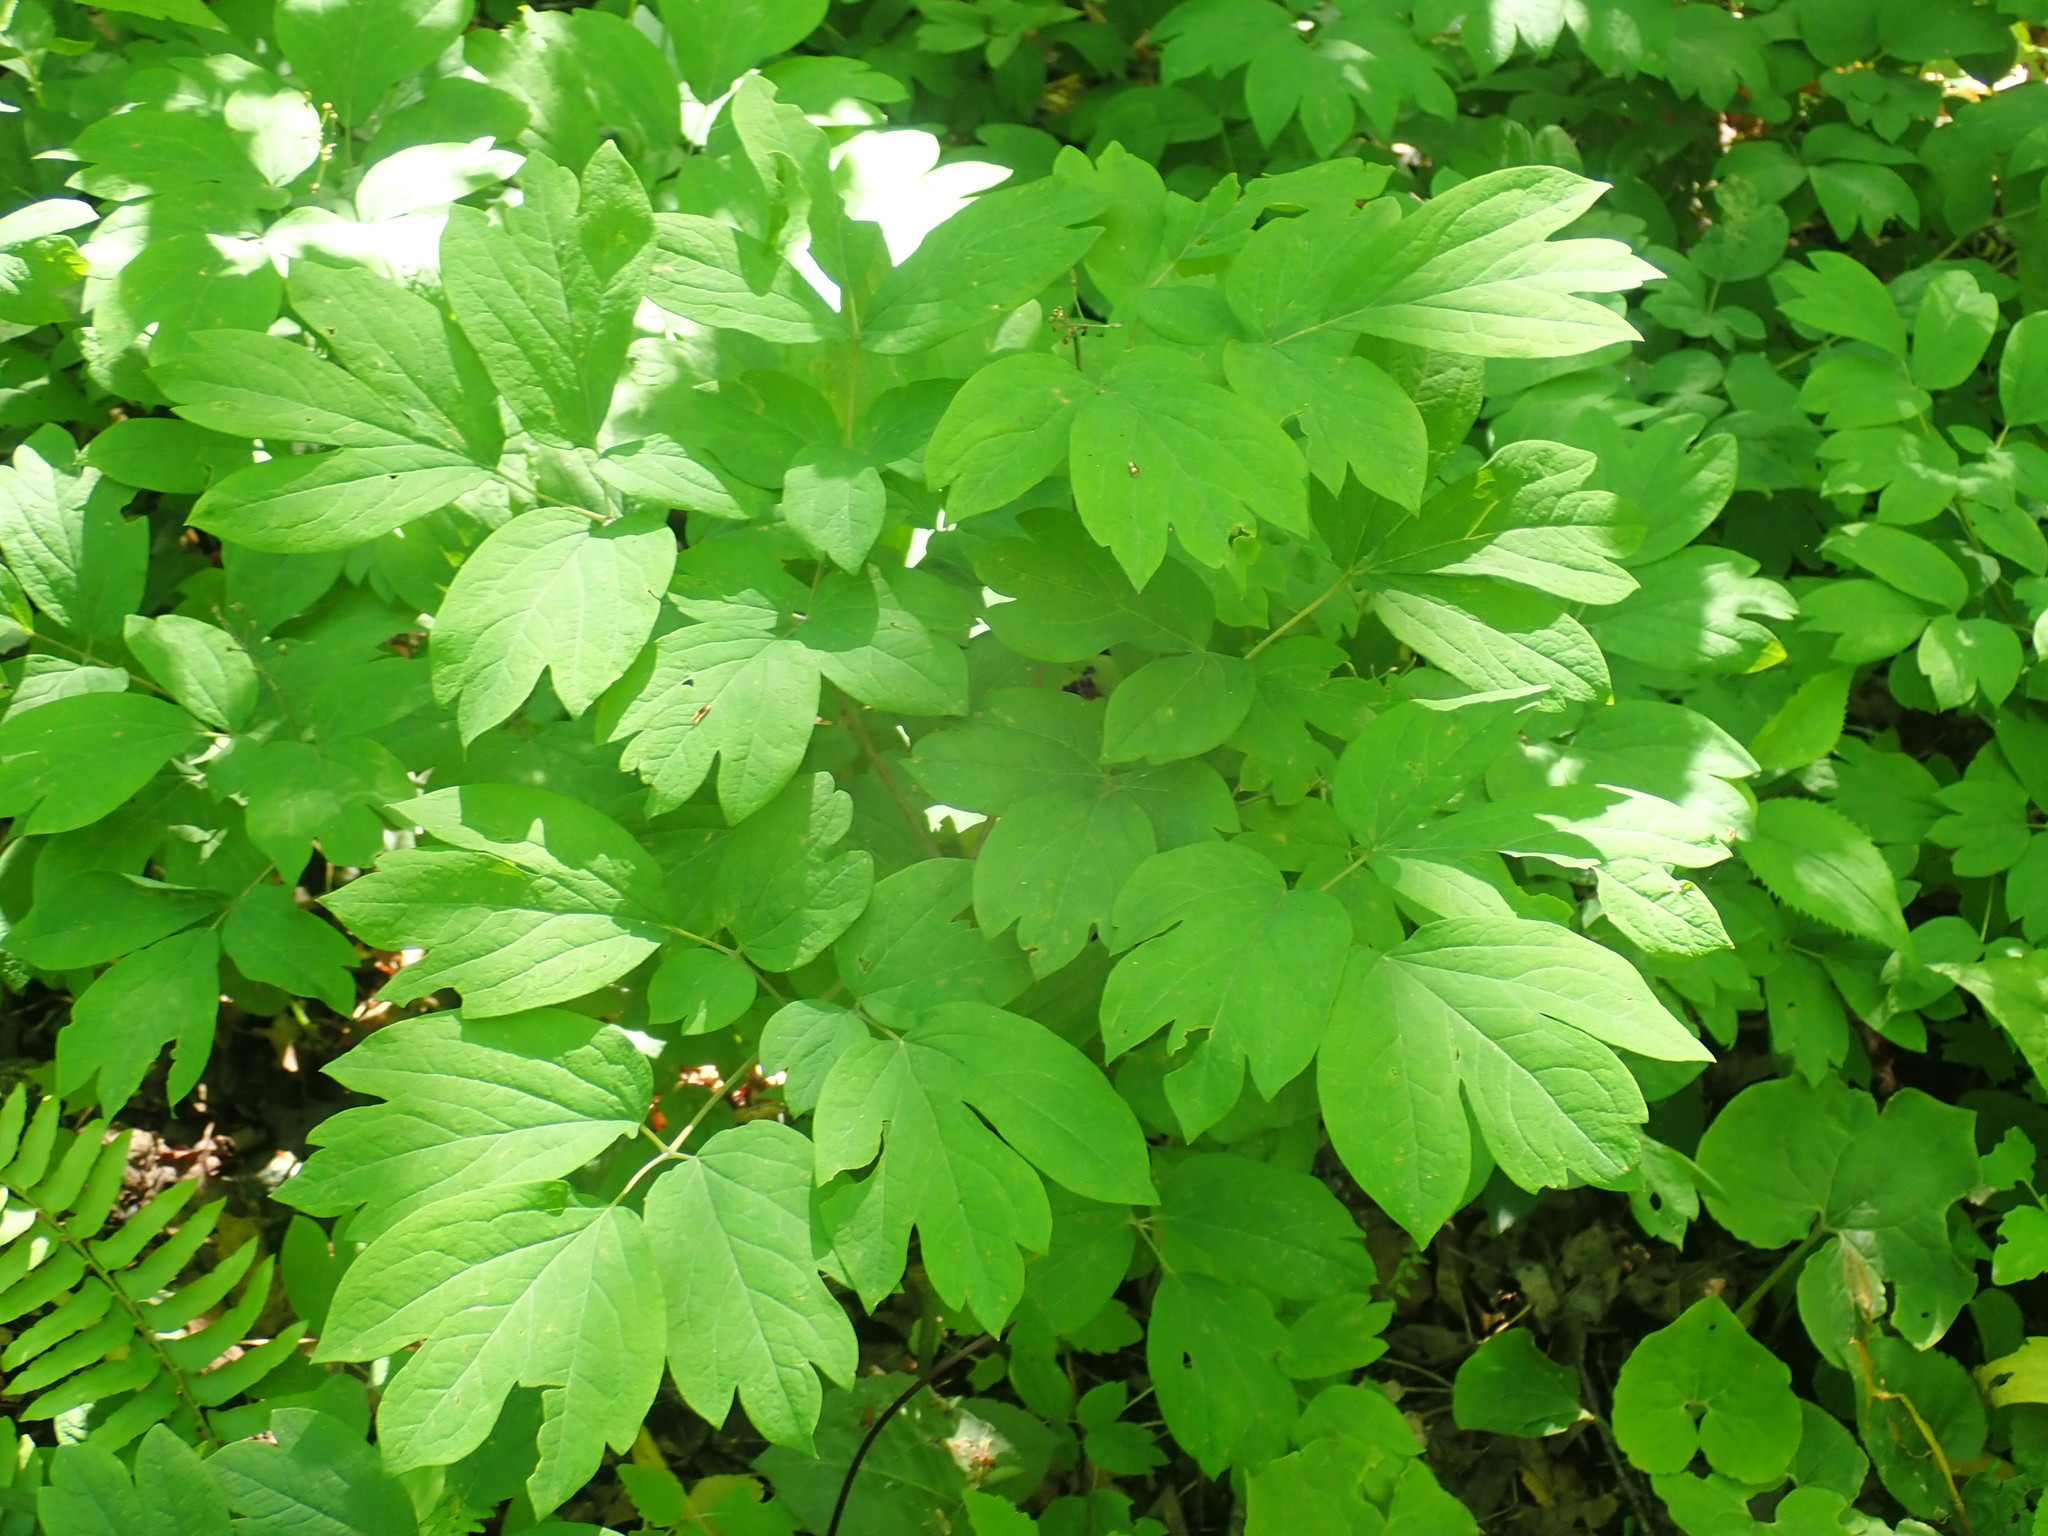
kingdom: Plantae
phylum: Tracheophyta
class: Magnoliopsida
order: Ranunculales
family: Berberidaceae
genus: Caulophyllum
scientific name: Caulophyllum
